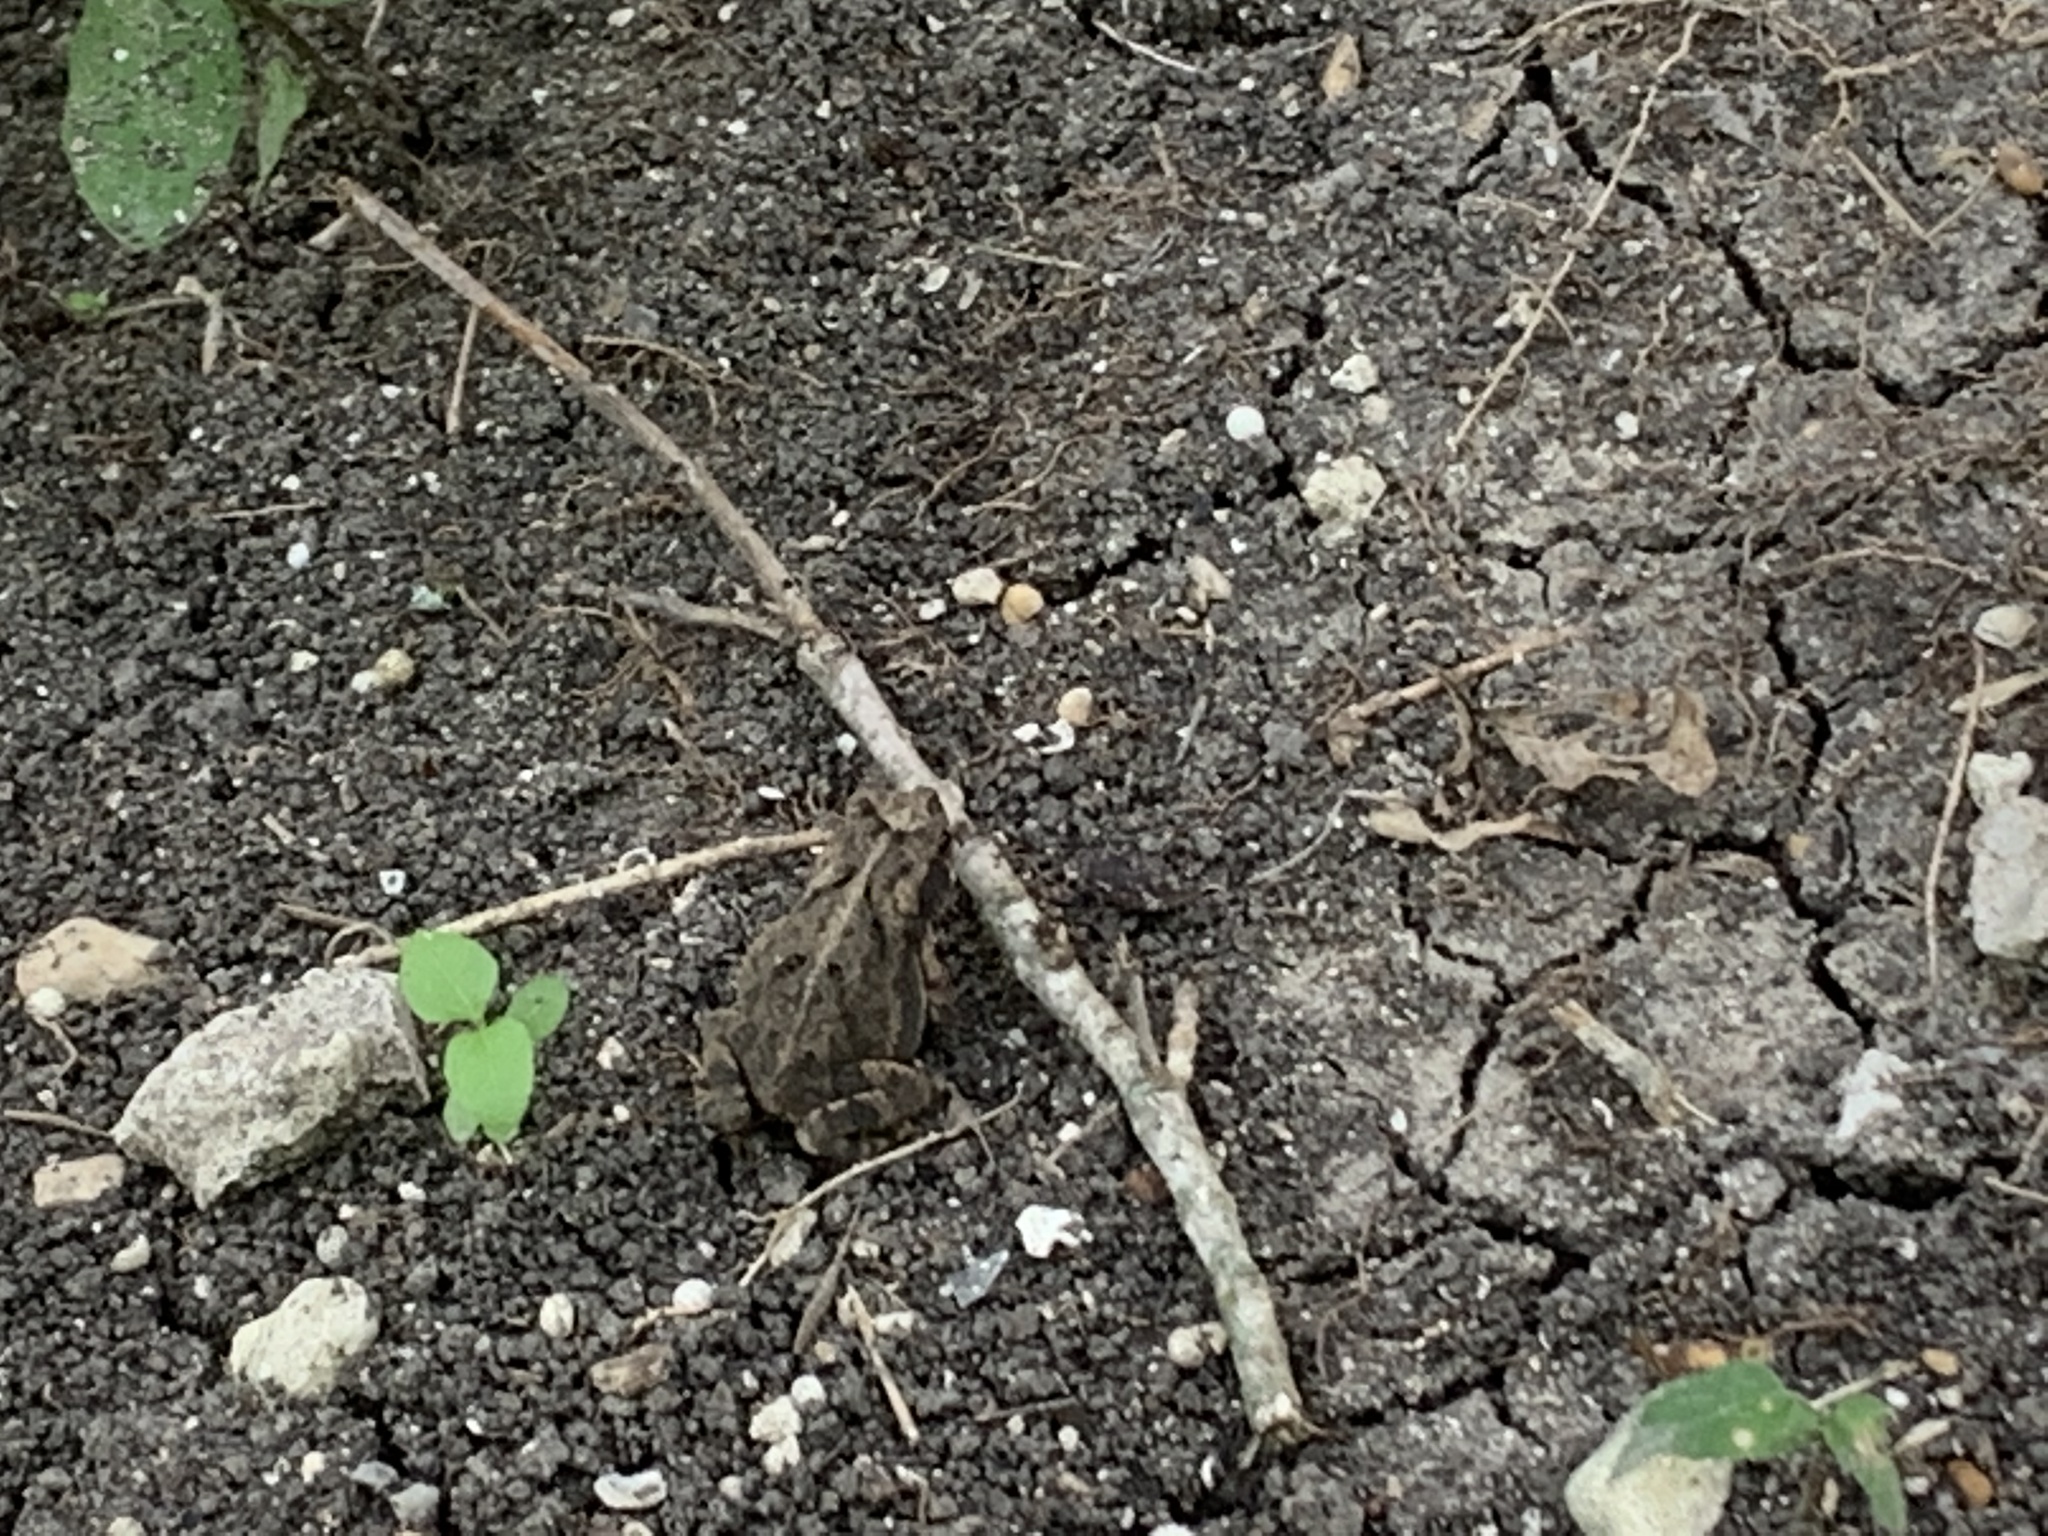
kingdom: Animalia
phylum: Chordata
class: Amphibia
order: Anura
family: Bufonidae
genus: Incilius
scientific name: Incilius nebulifer
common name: Gulf coast toad
